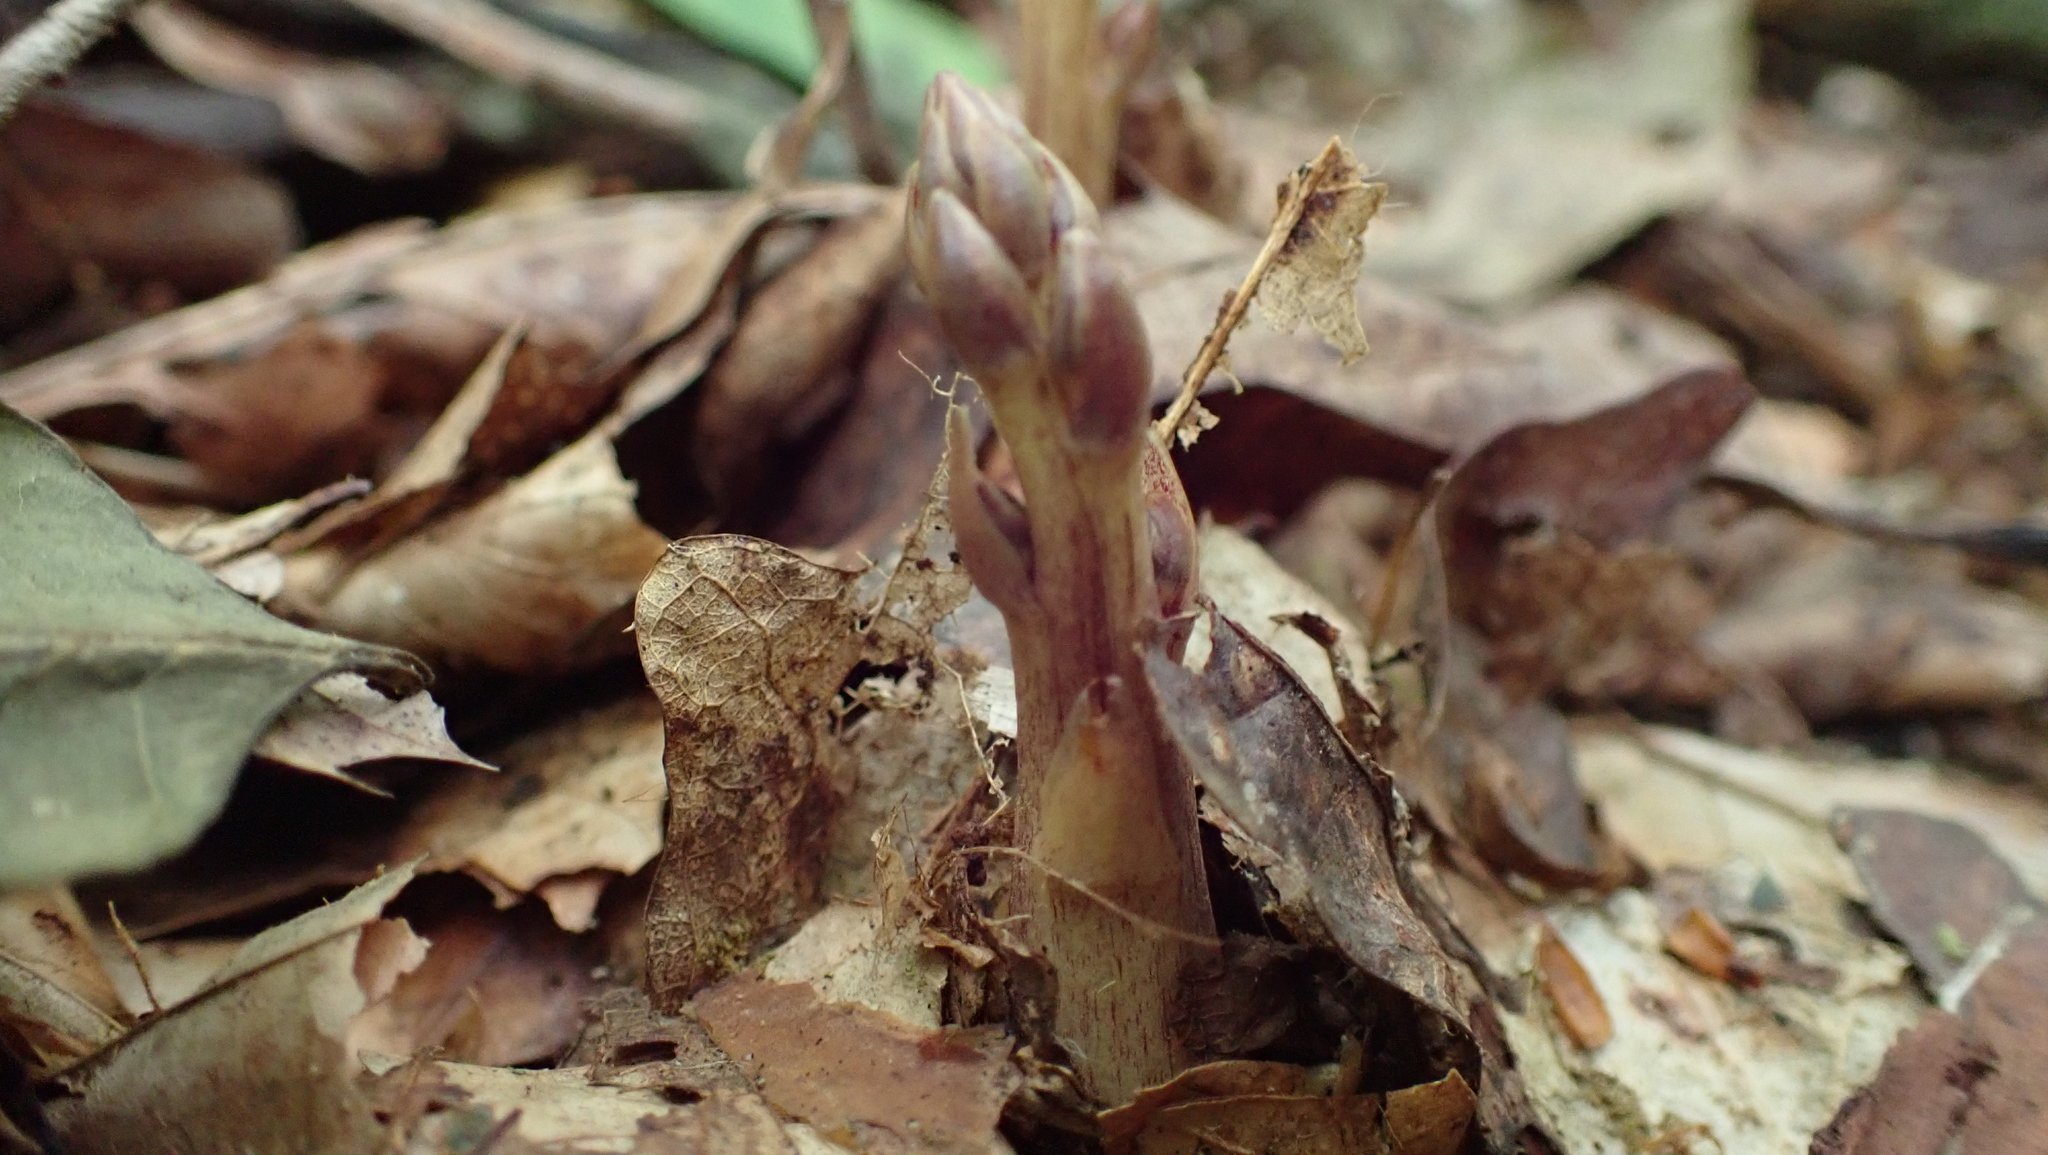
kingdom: Plantae
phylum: Tracheophyta
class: Magnoliopsida
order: Lamiales
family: Orobanchaceae
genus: Epifagus
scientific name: Epifagus virginiana
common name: Beechdrops
